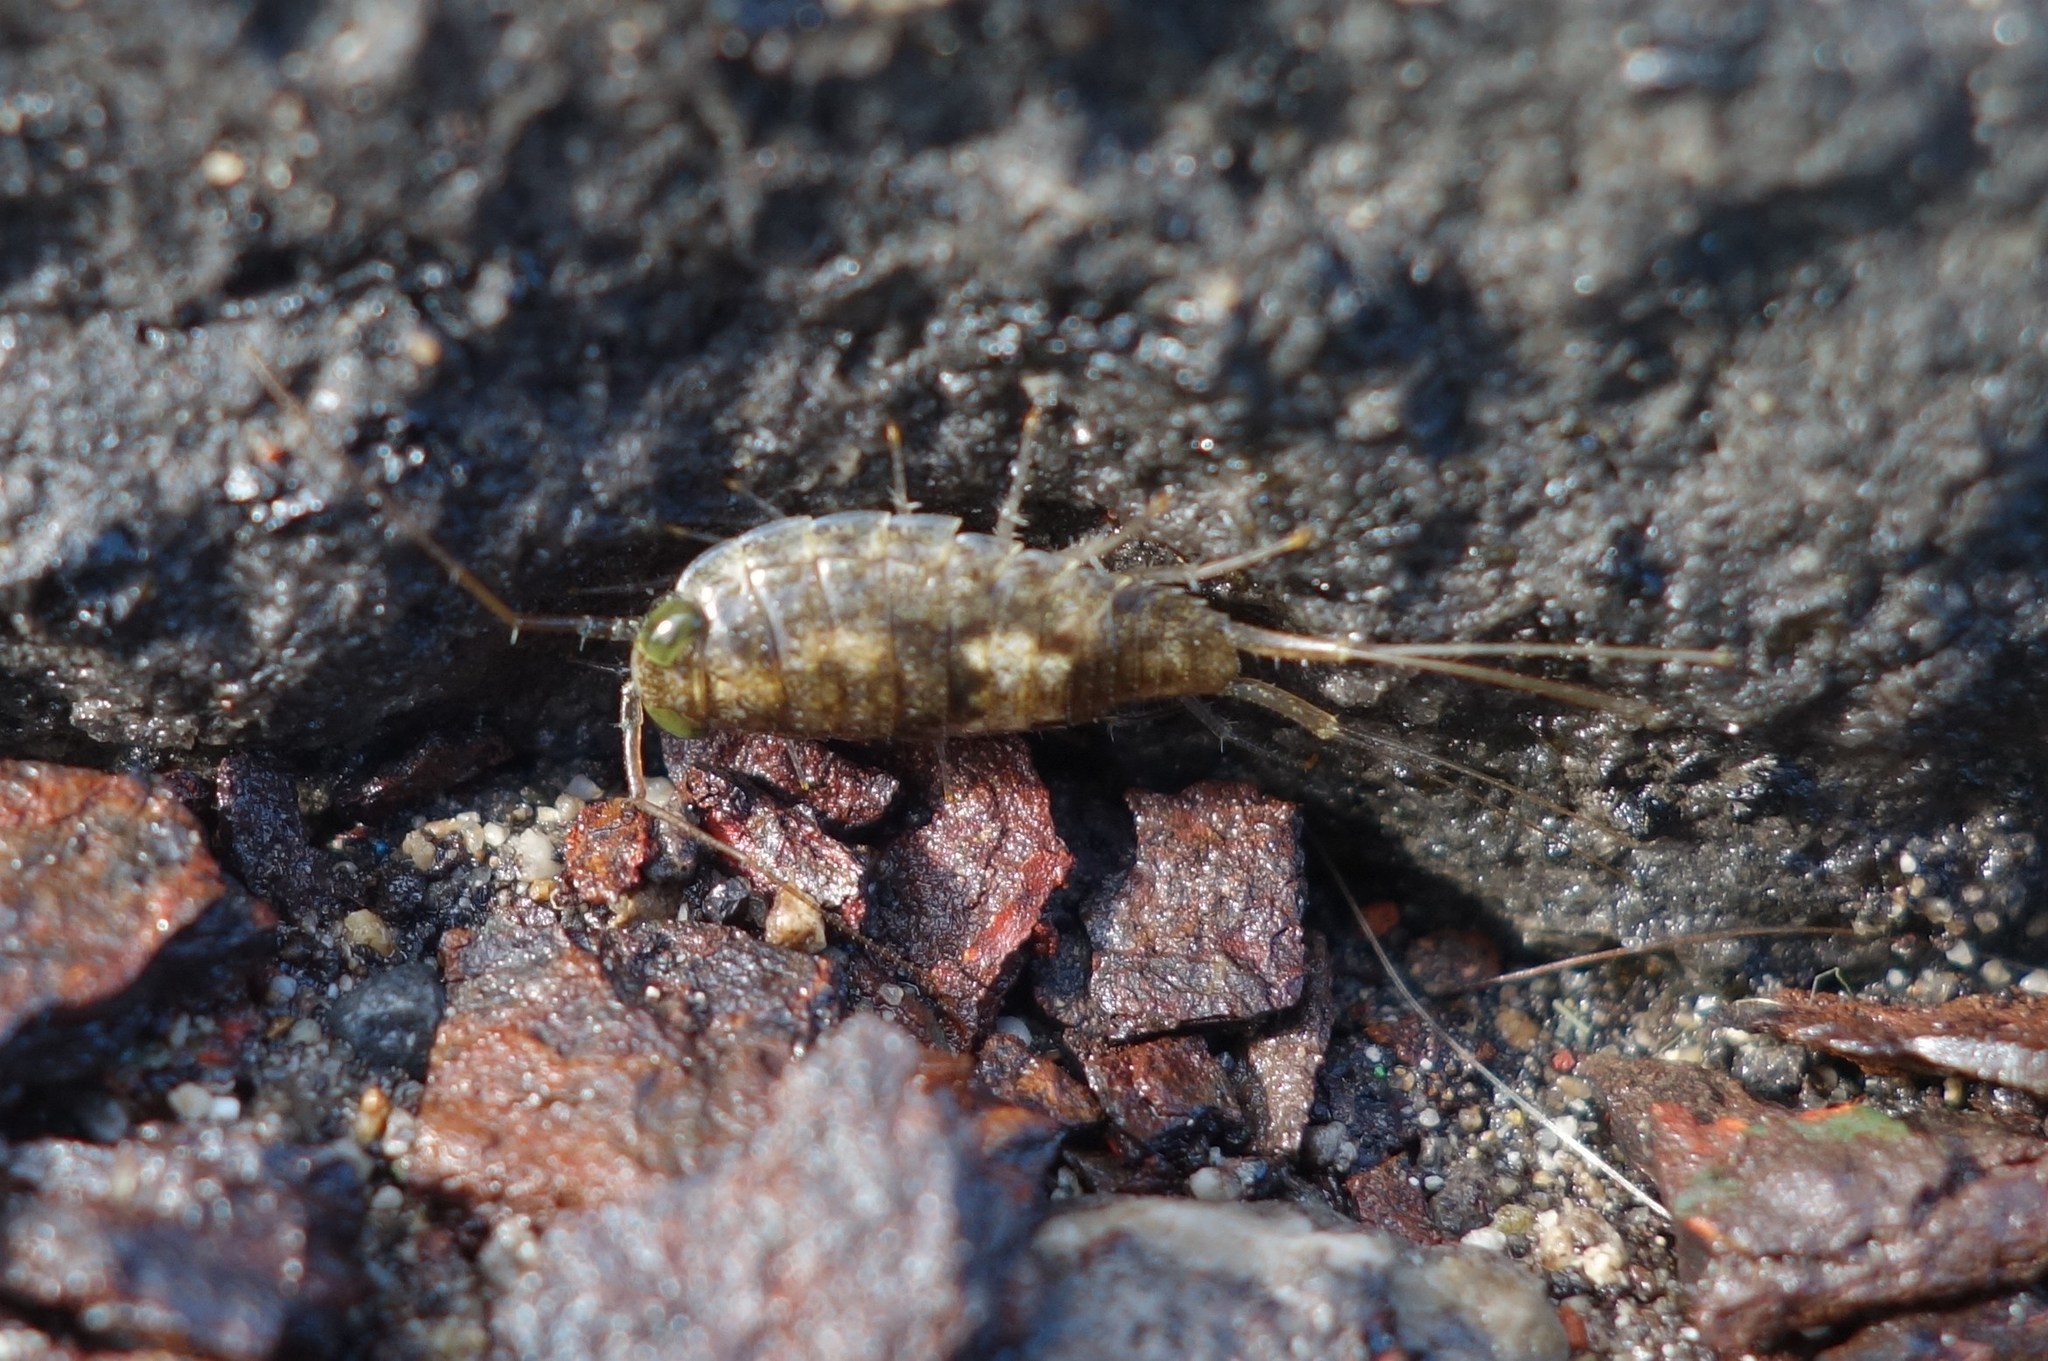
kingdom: Animalia
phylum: Arthropoda
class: Malacostraca
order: Isopoda
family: Ligiidae
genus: Ligia
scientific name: Ligia italica
